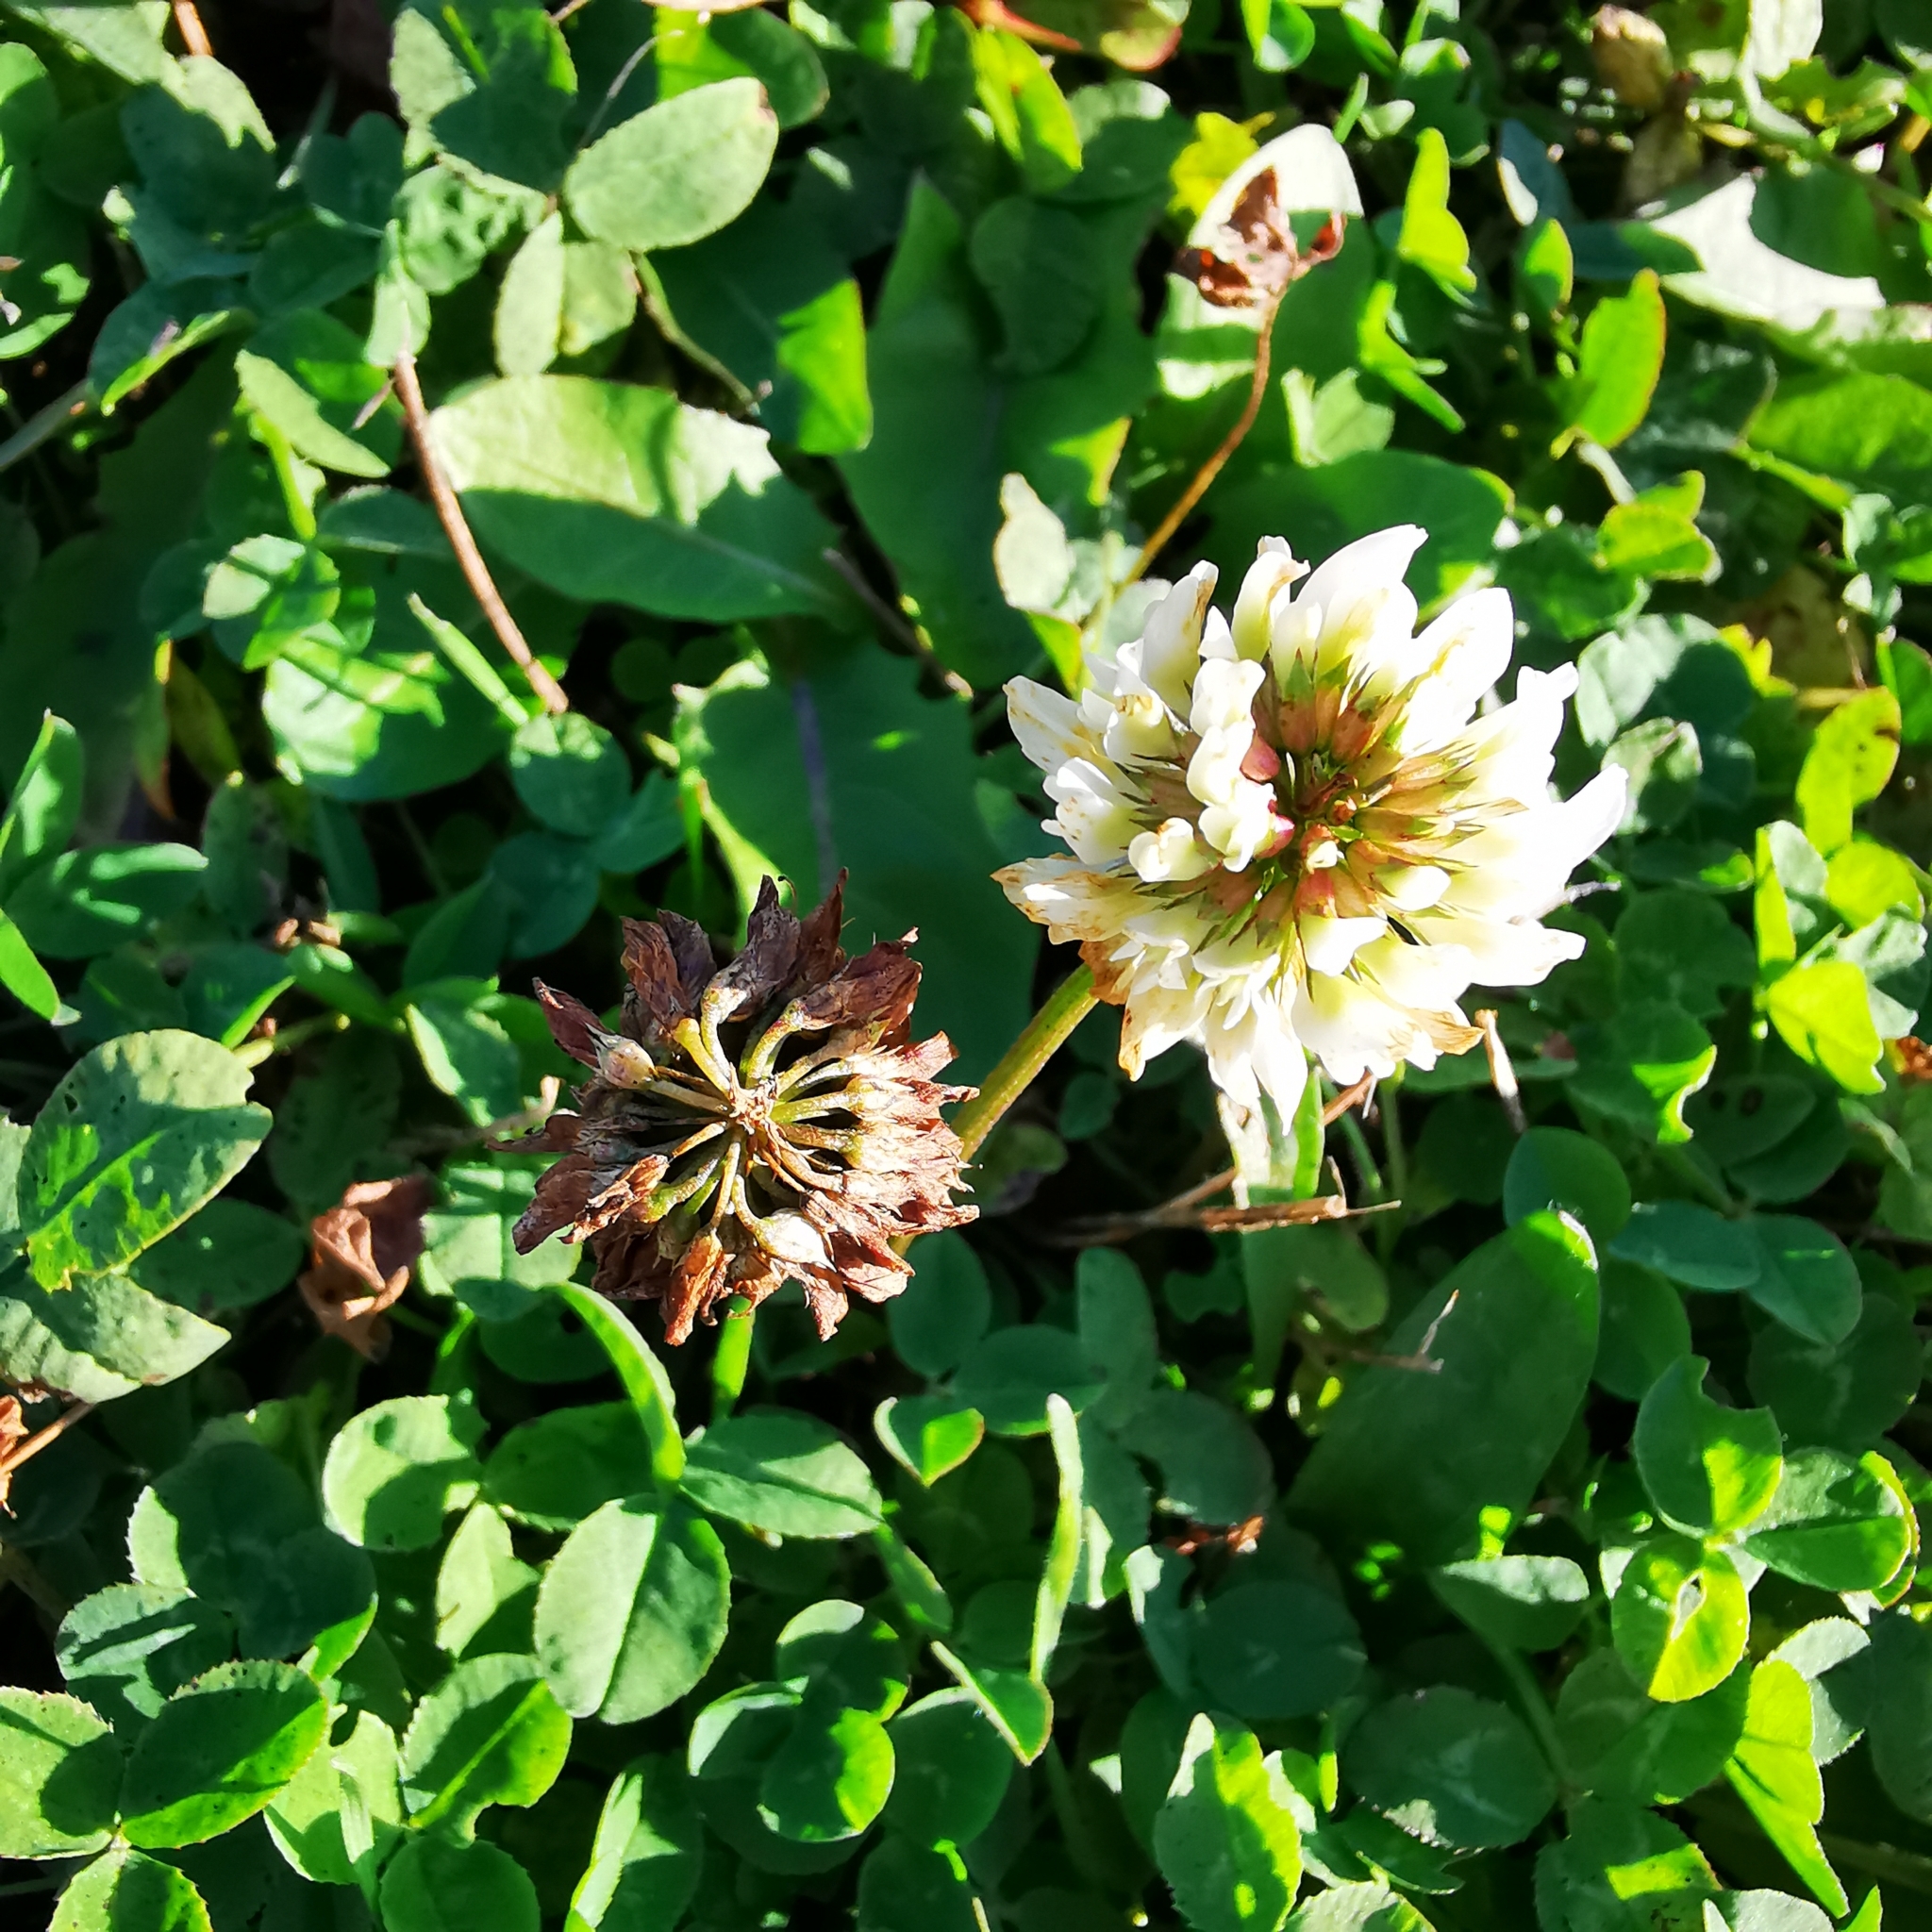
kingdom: Plantae
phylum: Tracheophyta
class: Magnoliopsida
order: Fabales
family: Fabaceae
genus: Trifolium
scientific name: Trifolium repens
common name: White clover
